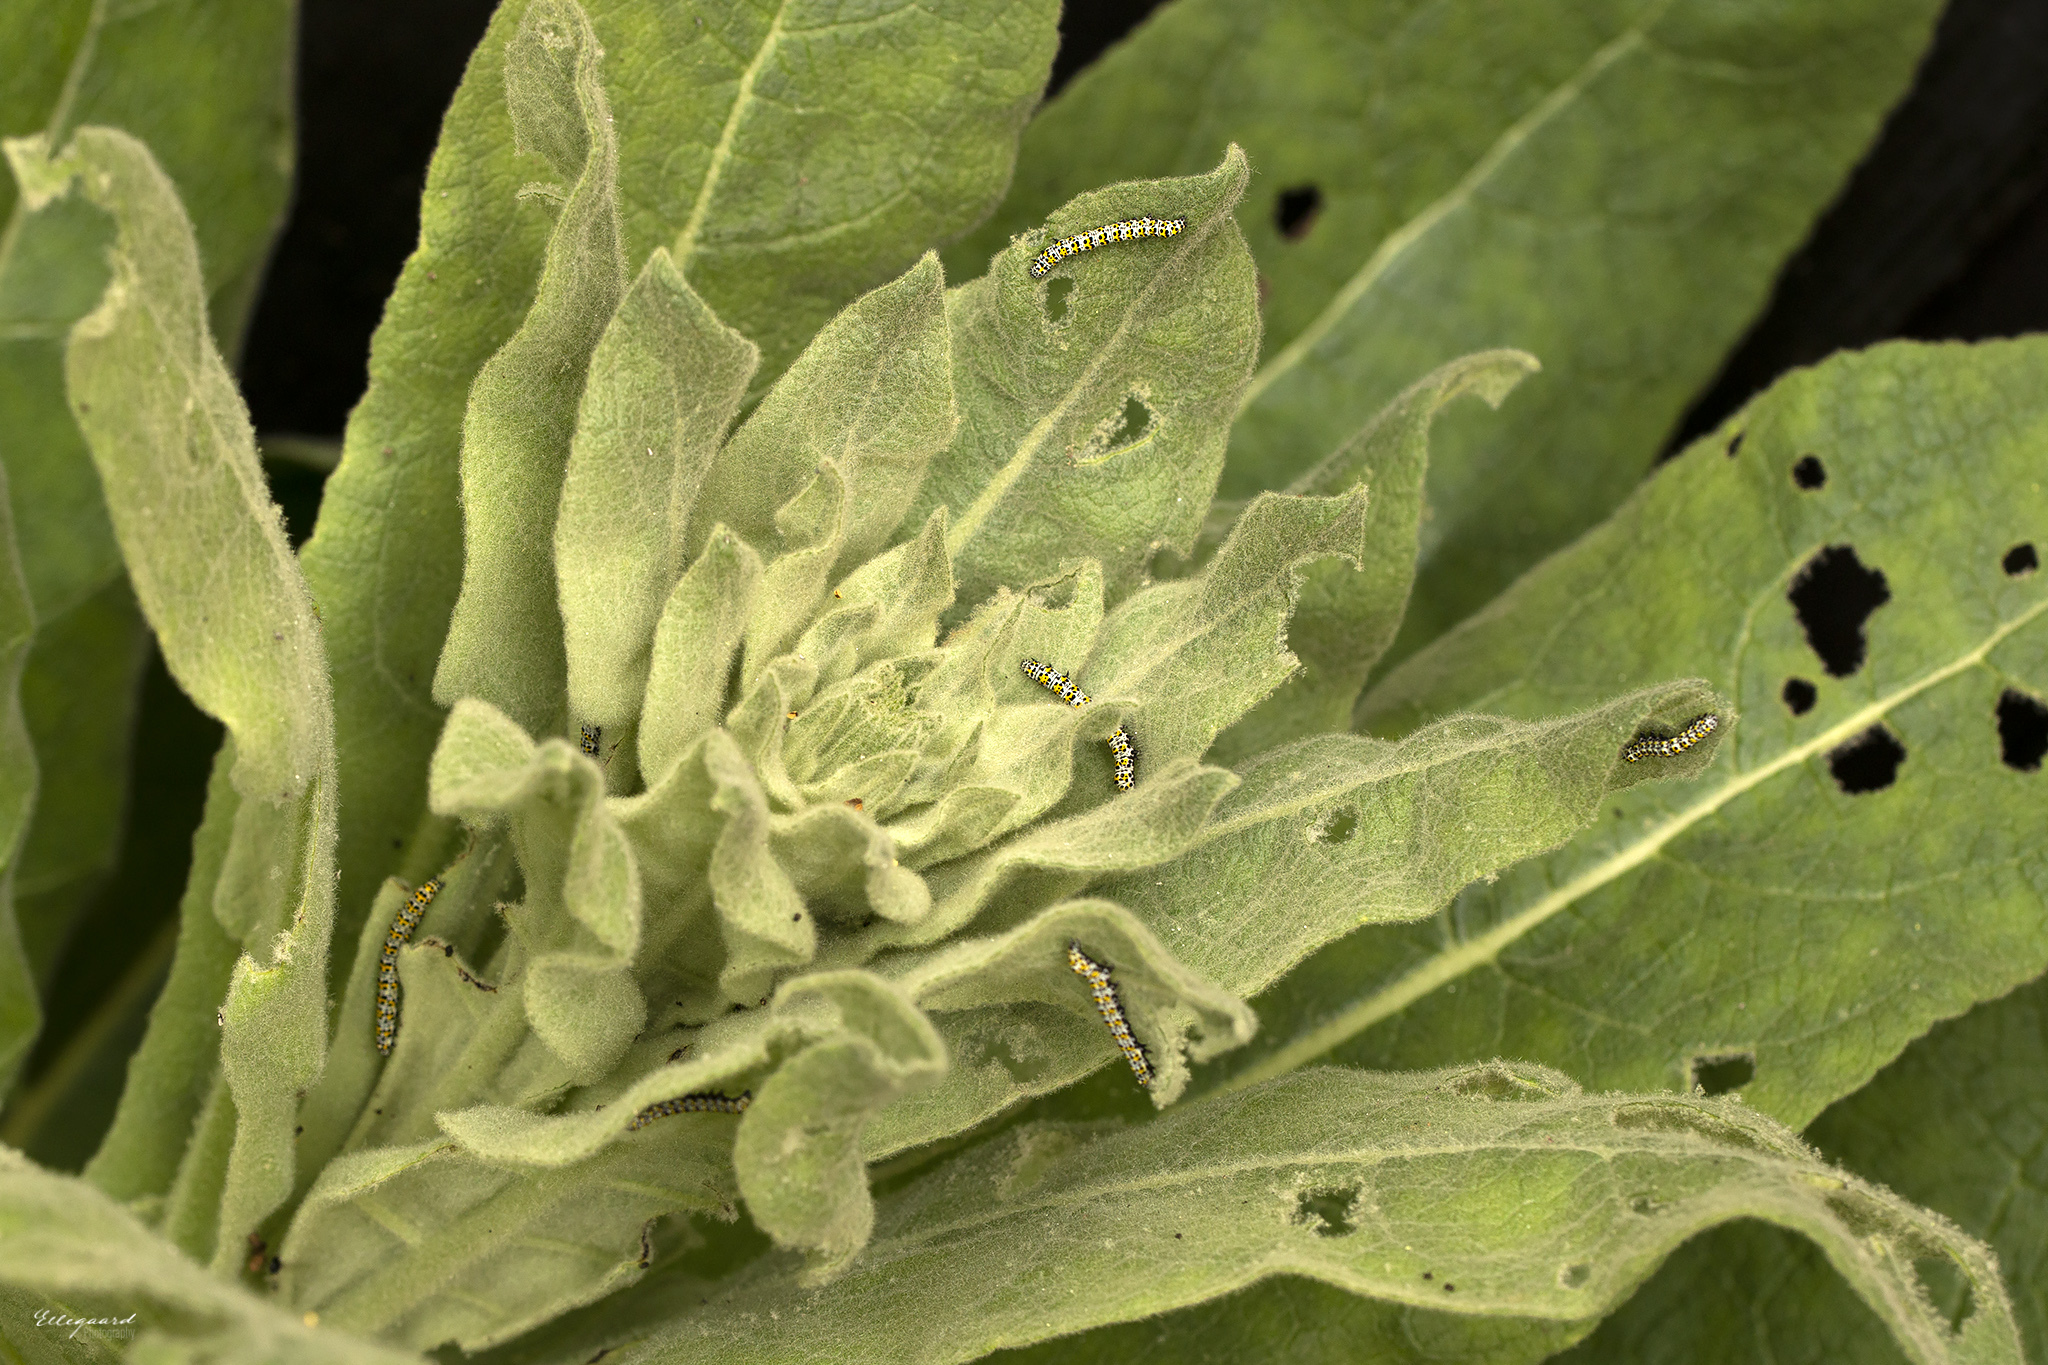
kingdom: Animalia
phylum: Arthropoda
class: Insecta
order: Lepidoptera
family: Noctuidae
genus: Cucullia
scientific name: Cucullia verbasci
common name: Mullein
